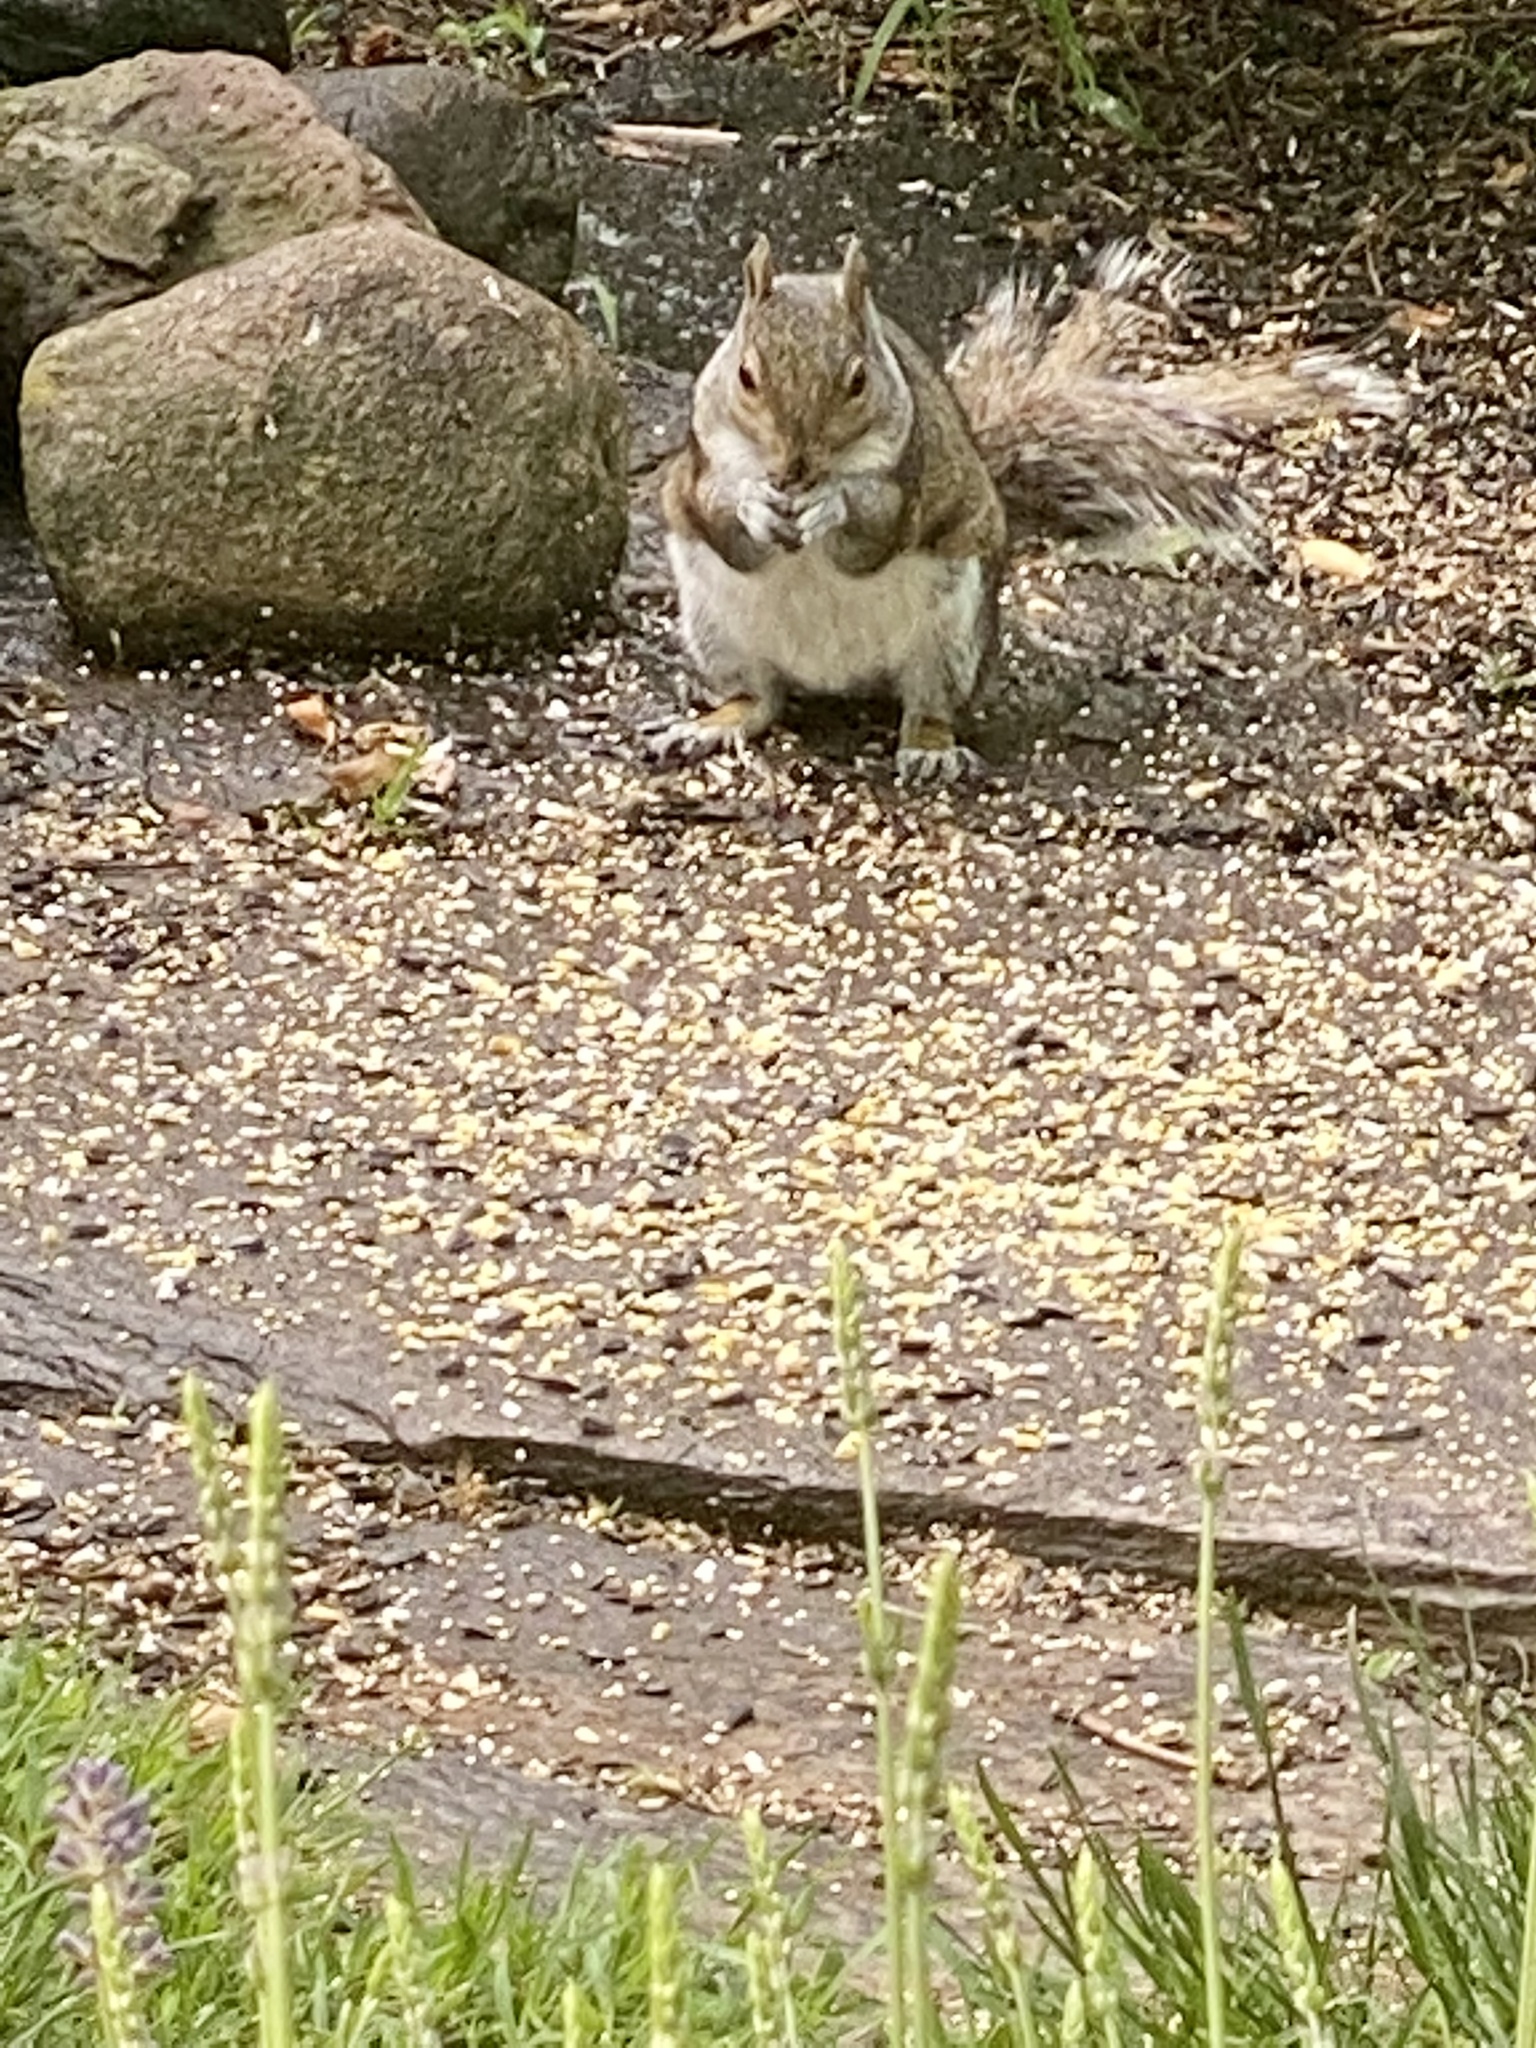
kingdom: Animalia
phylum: Chordata
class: Mammalia
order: Rodentia
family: Sciuridae
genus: Sciurus
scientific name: Sciurus carolinensis
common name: Eastern gray squirrel
